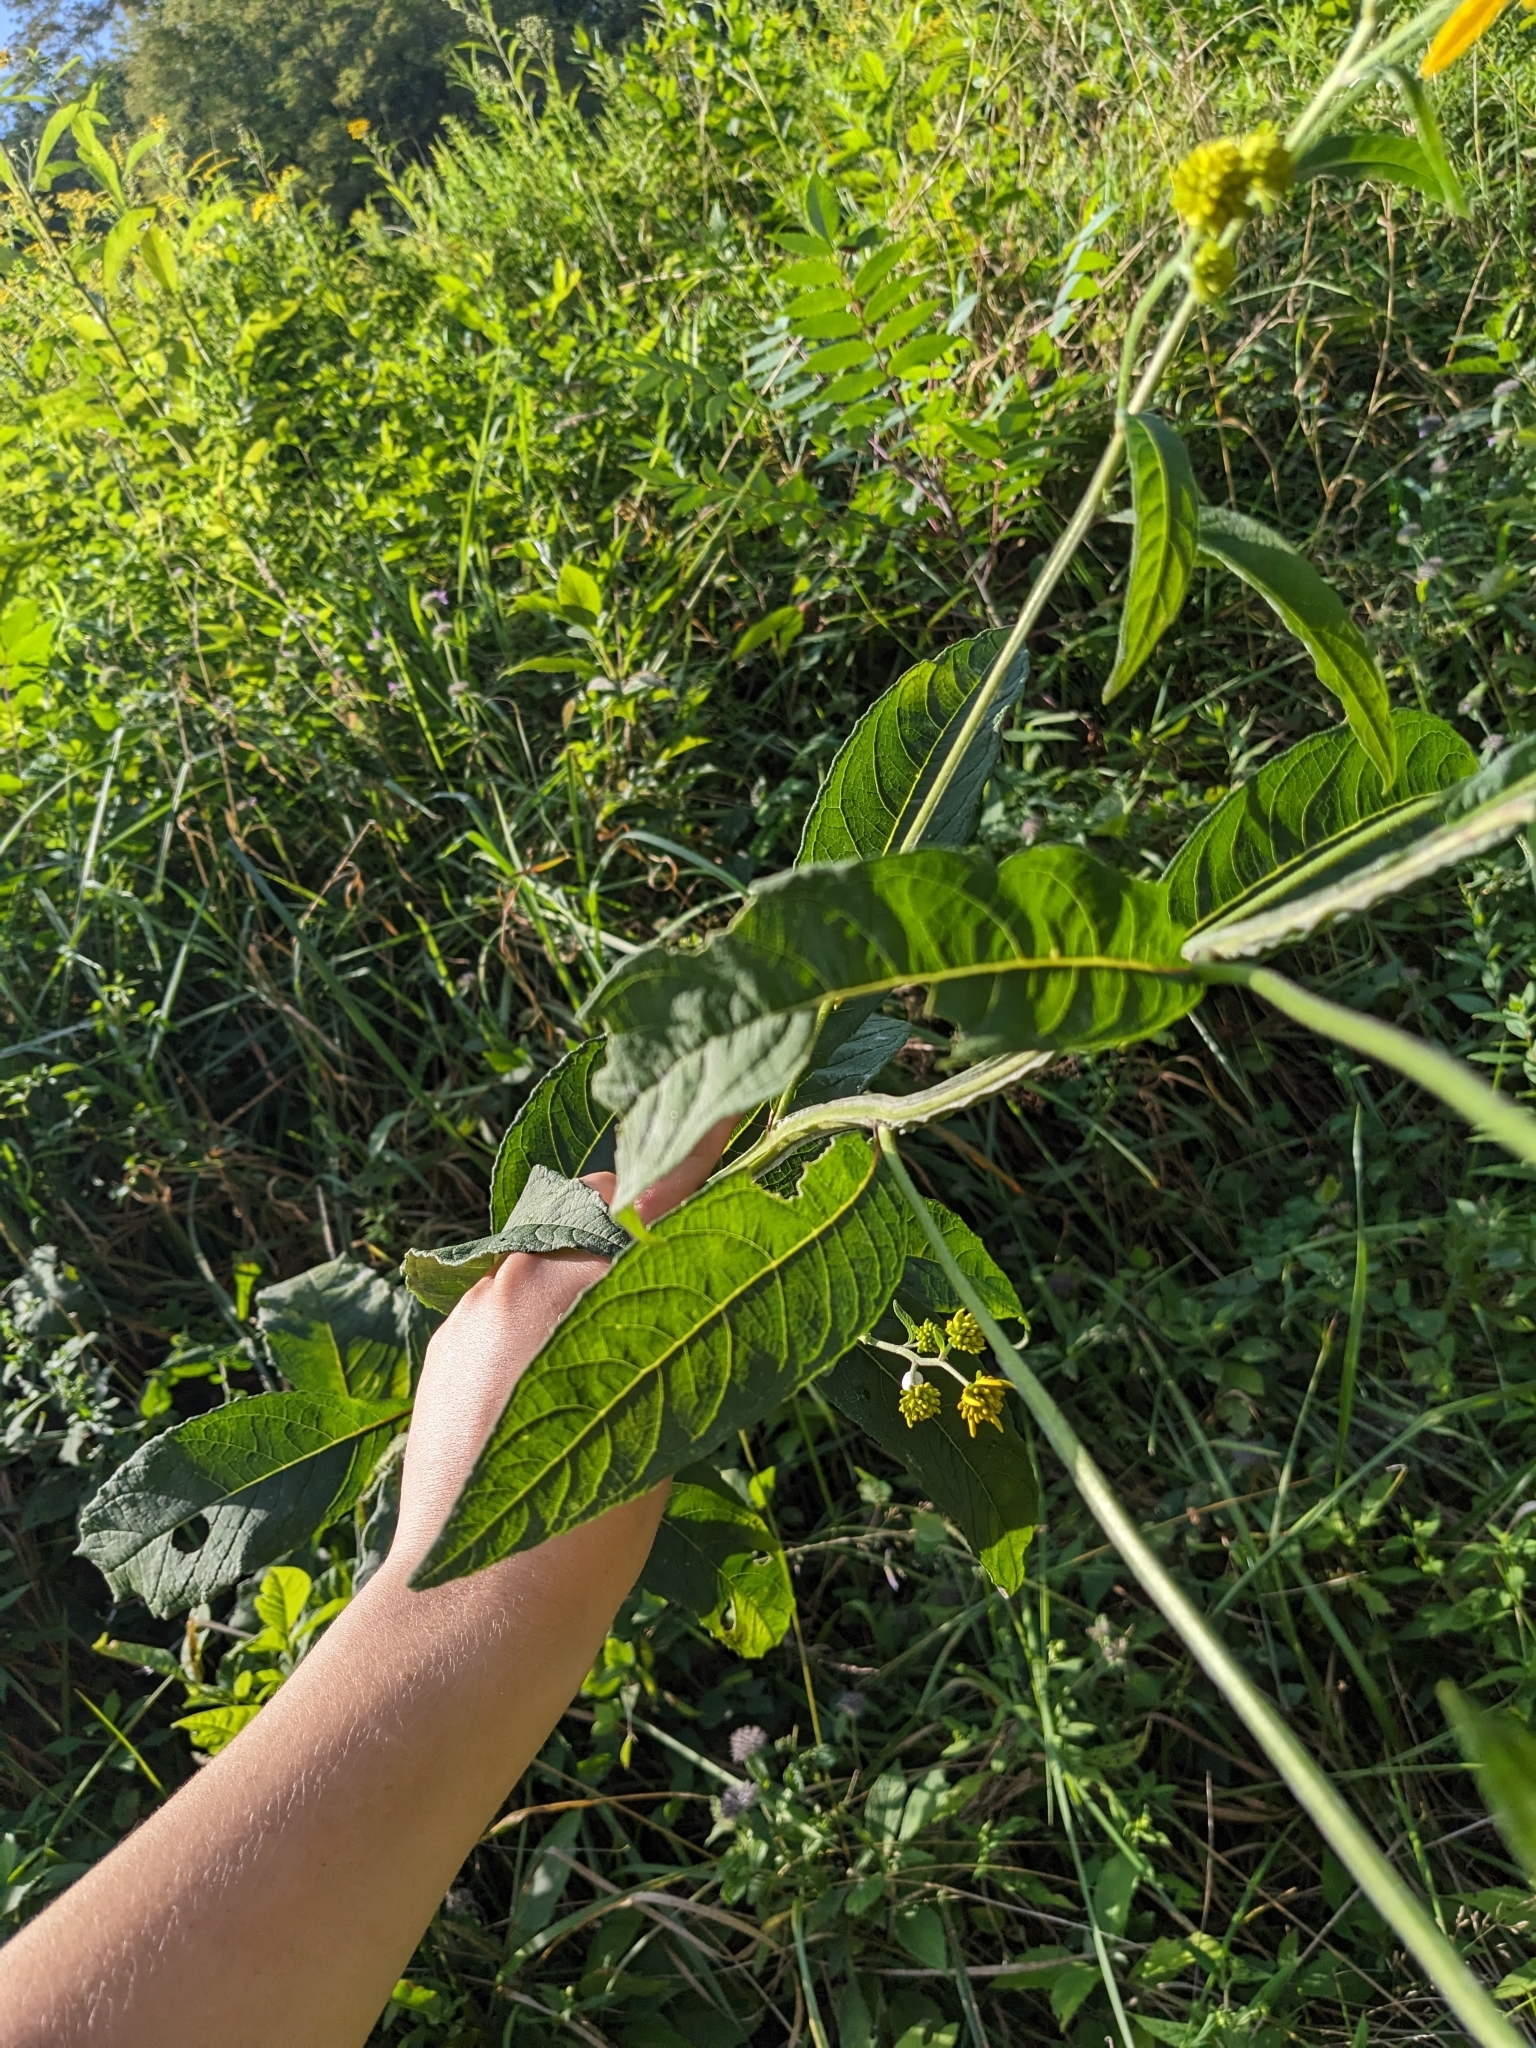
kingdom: Plantae
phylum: Tracheophyta
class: Magnoliopsida
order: Asterales
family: Asteraceae
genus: Verbesina
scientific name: Verbesina alternifolia
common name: Wingstem
